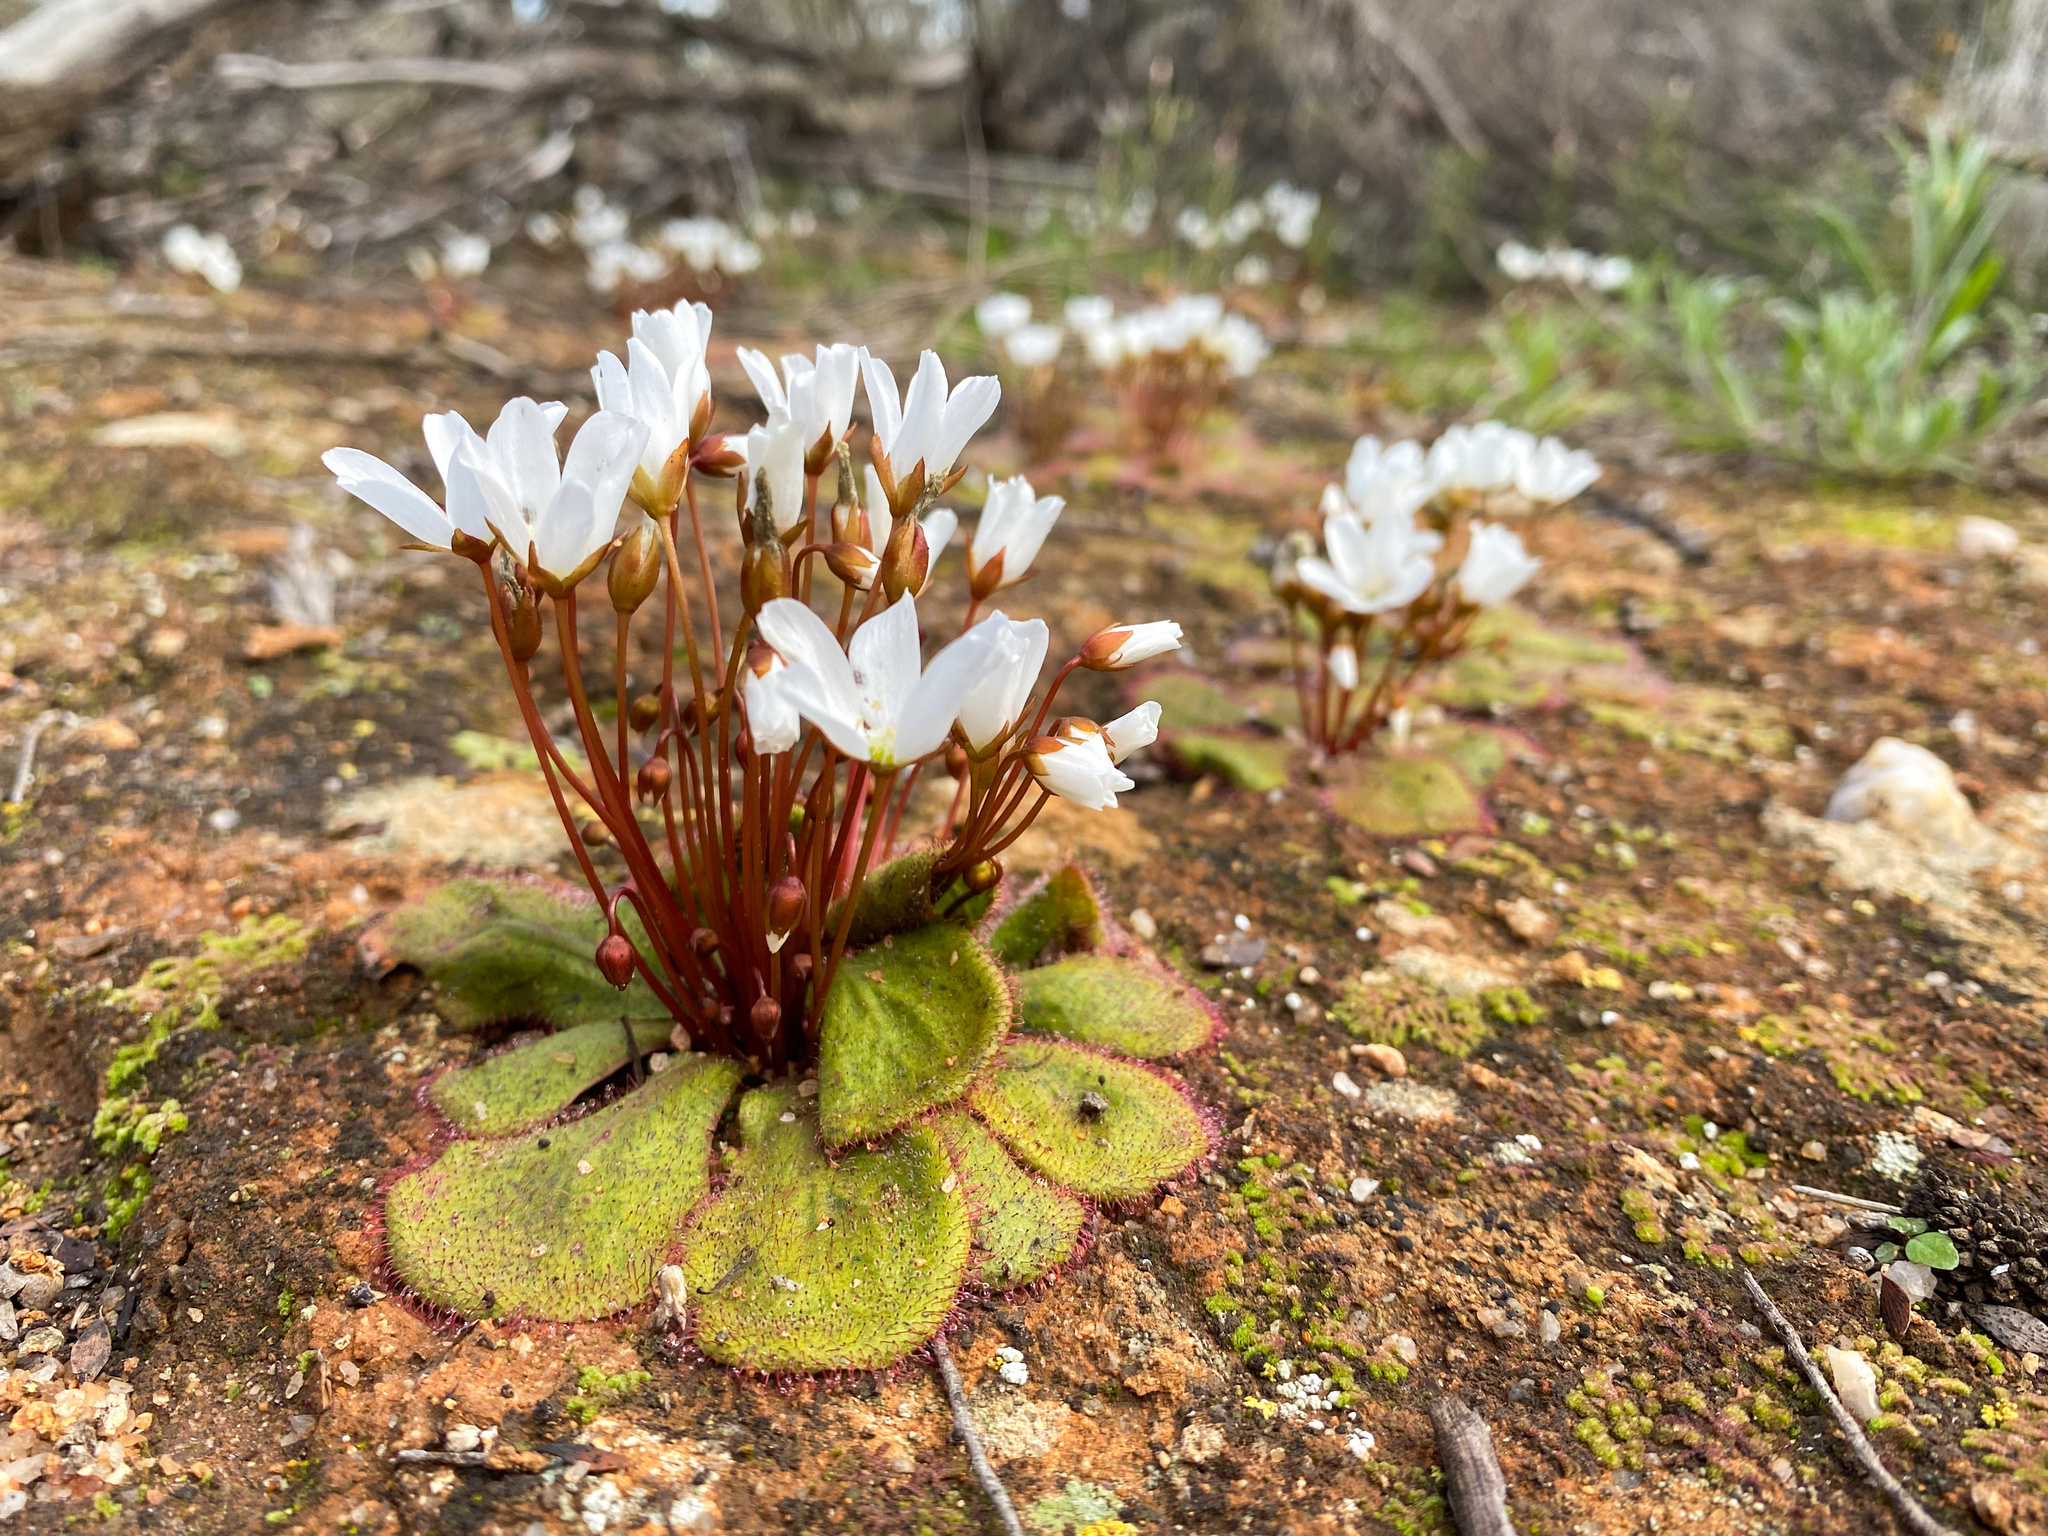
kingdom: Plantae
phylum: Tracheophyta
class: Magnoliopsida
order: Caryophyllales
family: Droseraceae
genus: Drosera
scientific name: Drosera macrophylla
